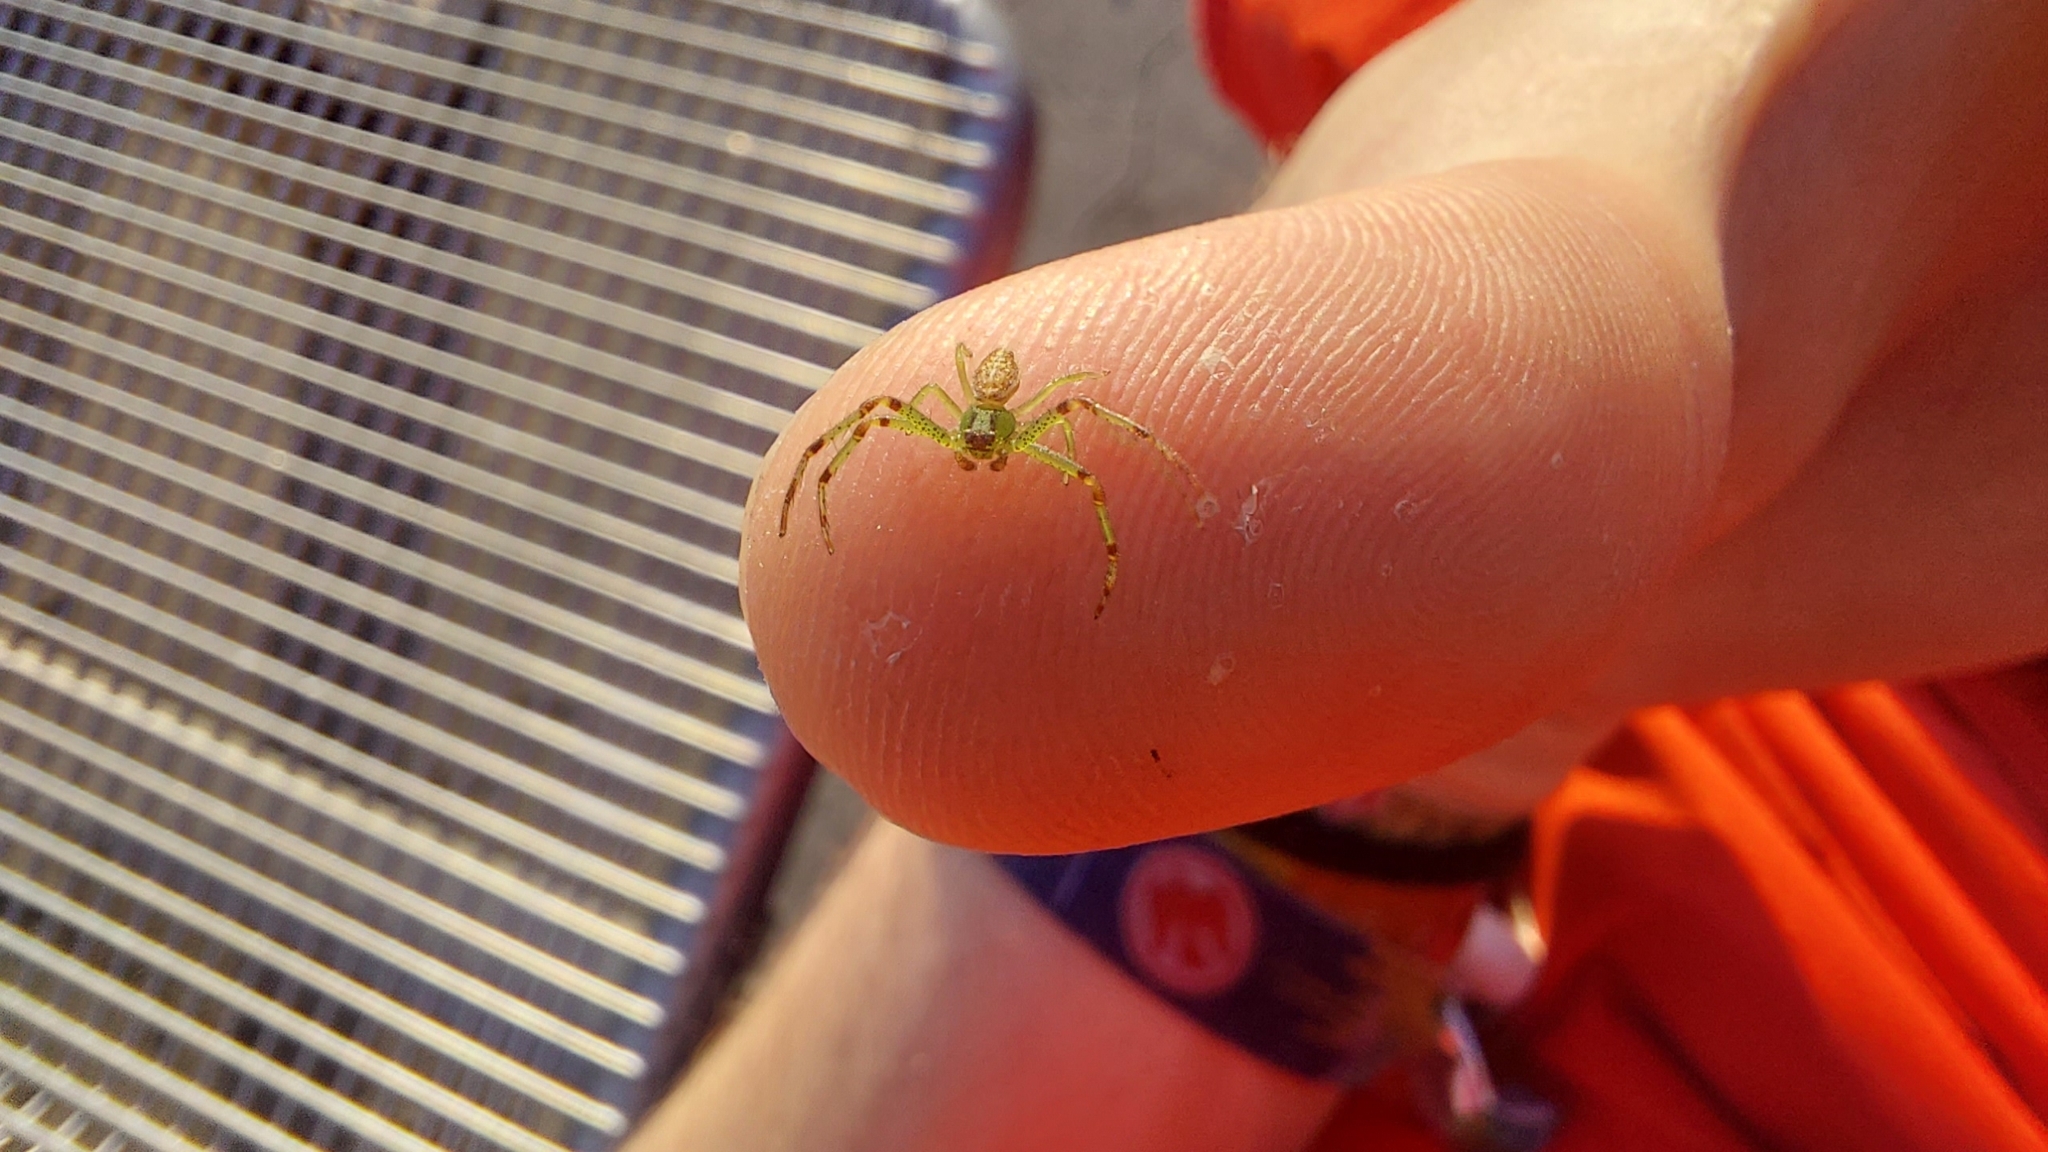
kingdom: Animalia
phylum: Arthropoda
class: Arachnida
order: Araneae
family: Thomisidae
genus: Diaea
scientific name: Diaea dorsata
